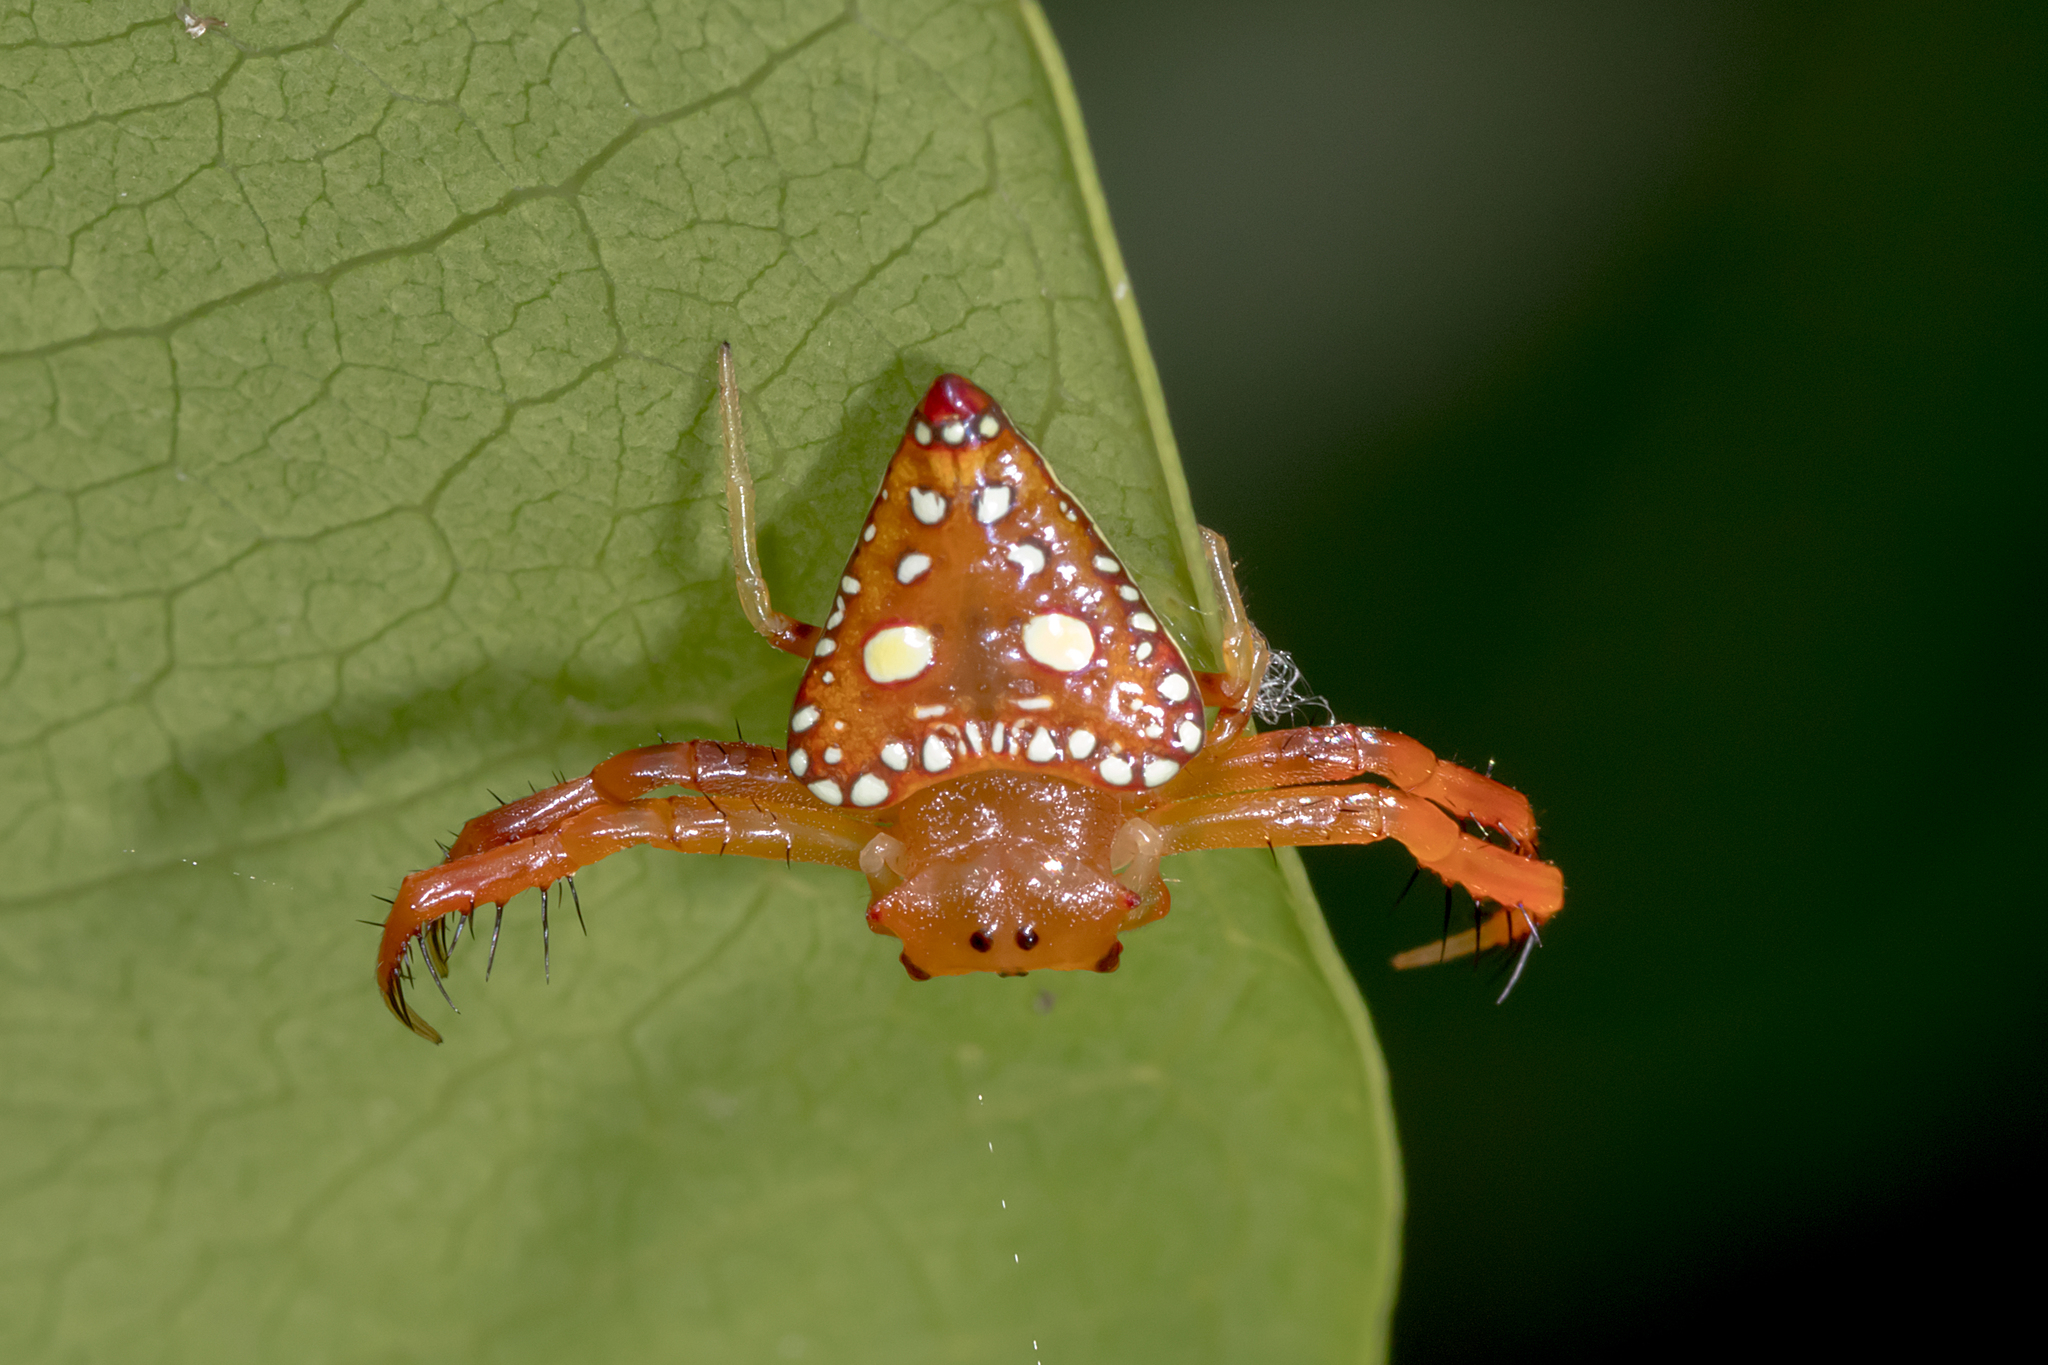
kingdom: Animalia
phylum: Arthropoda
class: Arachnida
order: Araneae
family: Arkyidae
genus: Arkys
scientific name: Arkys lancearius
